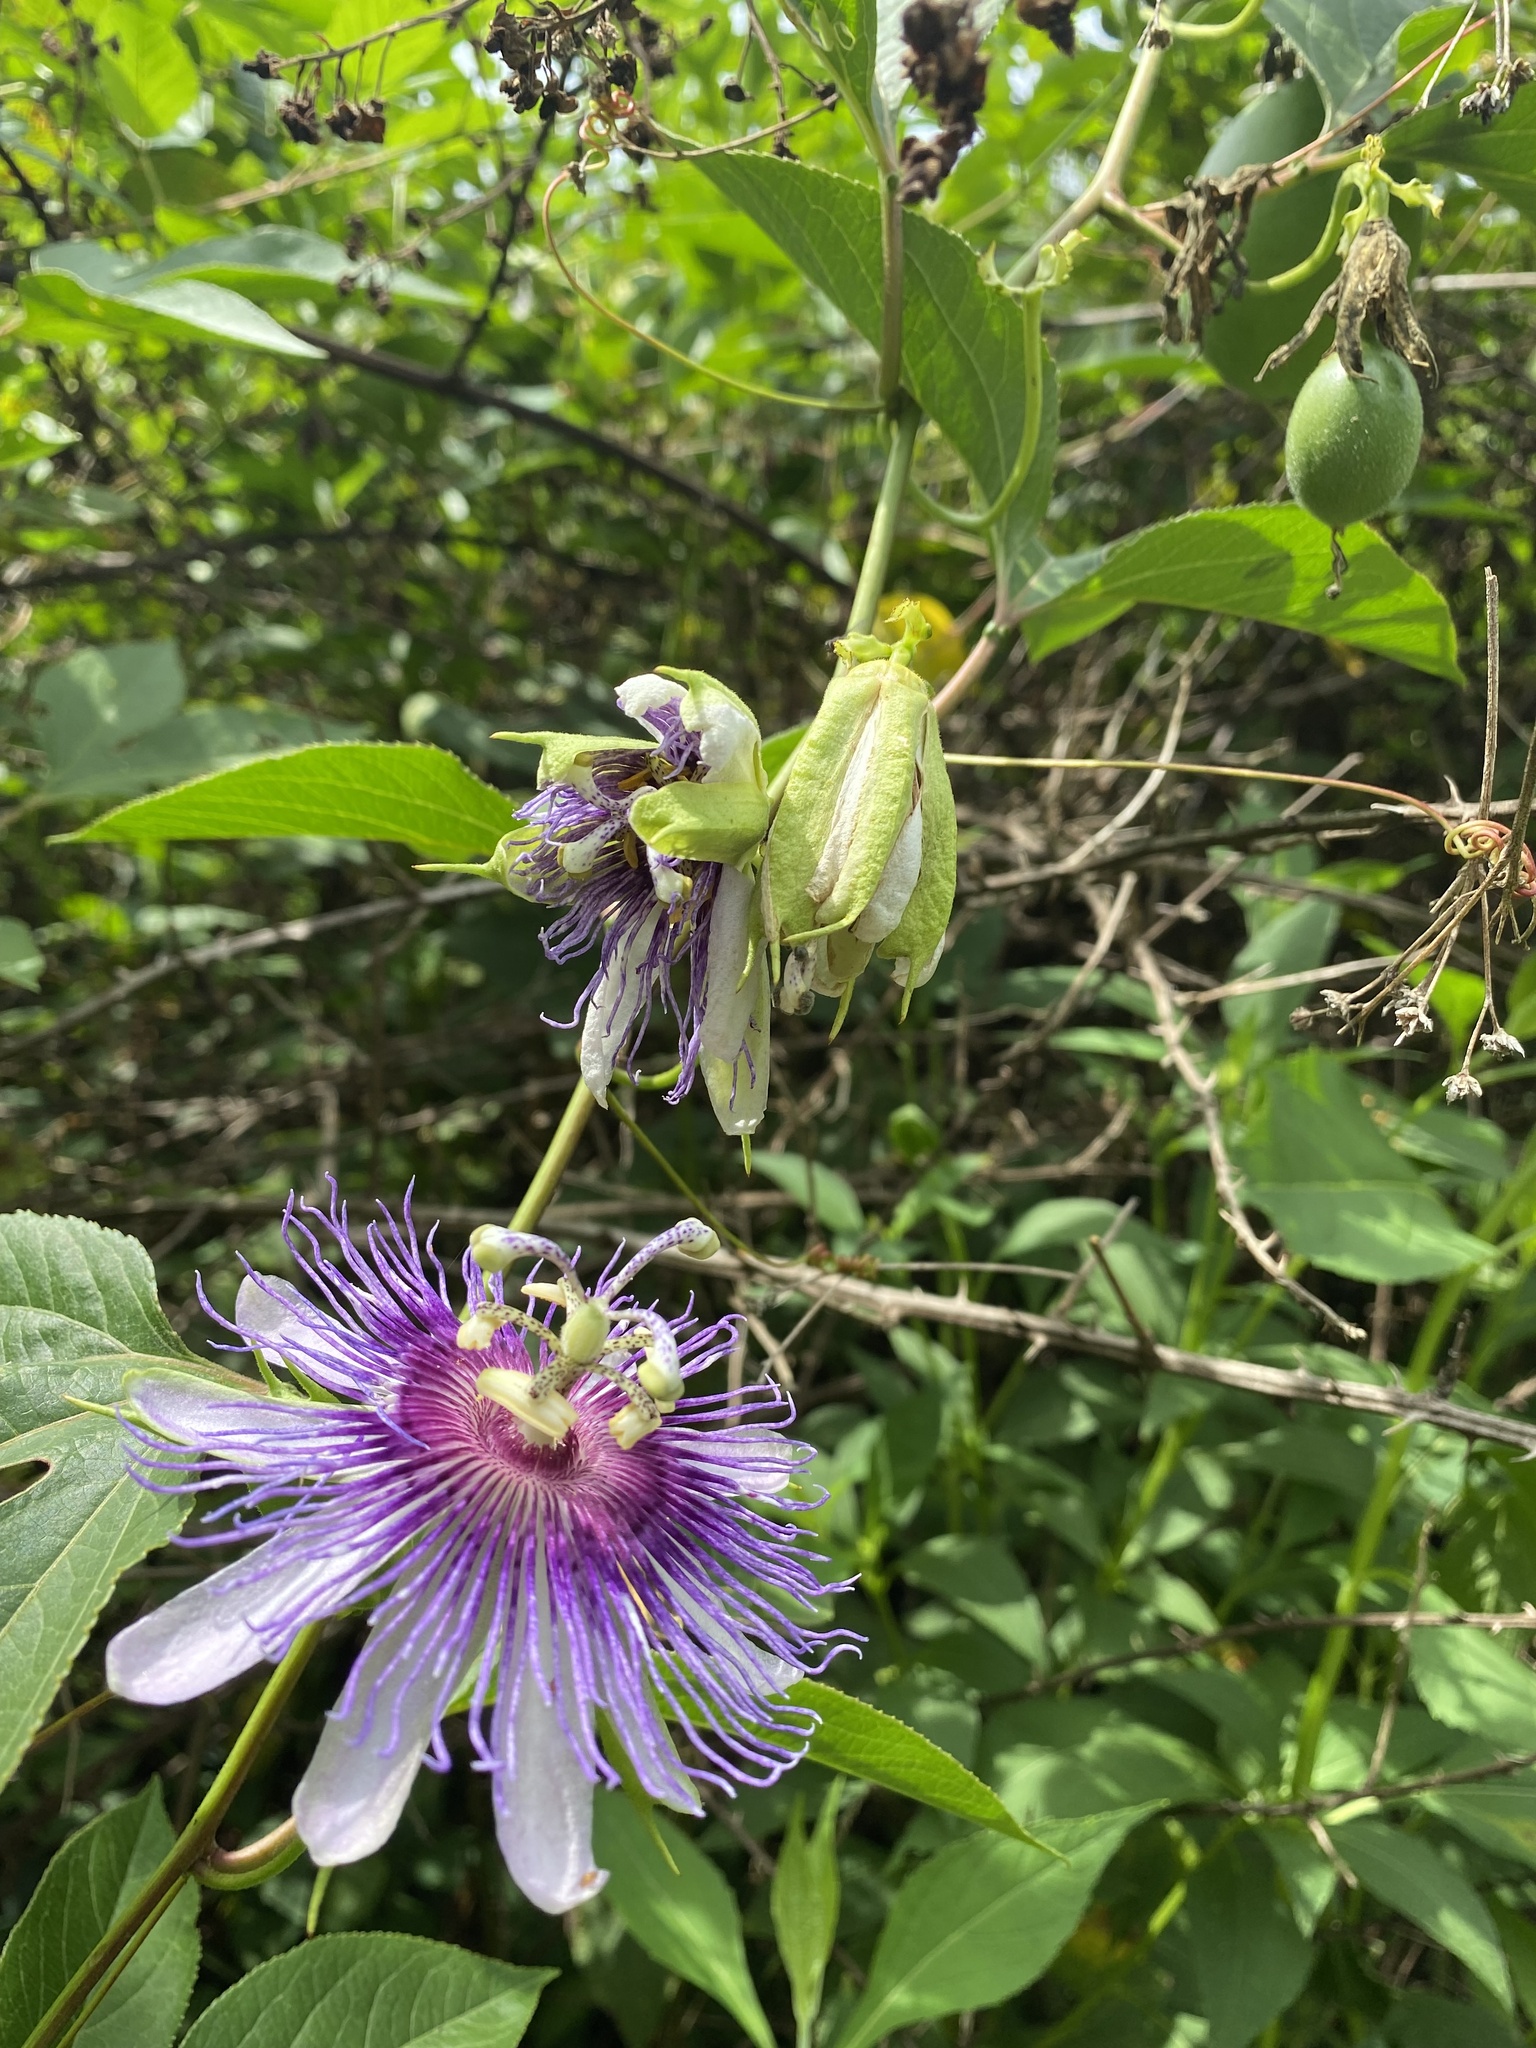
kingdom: Plantae
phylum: Tracheophyta
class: Magnoliopsida
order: Malpighiales
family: Passifloraceae
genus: Passiflora
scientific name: Passiflora incarnata
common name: Apricot-vine
